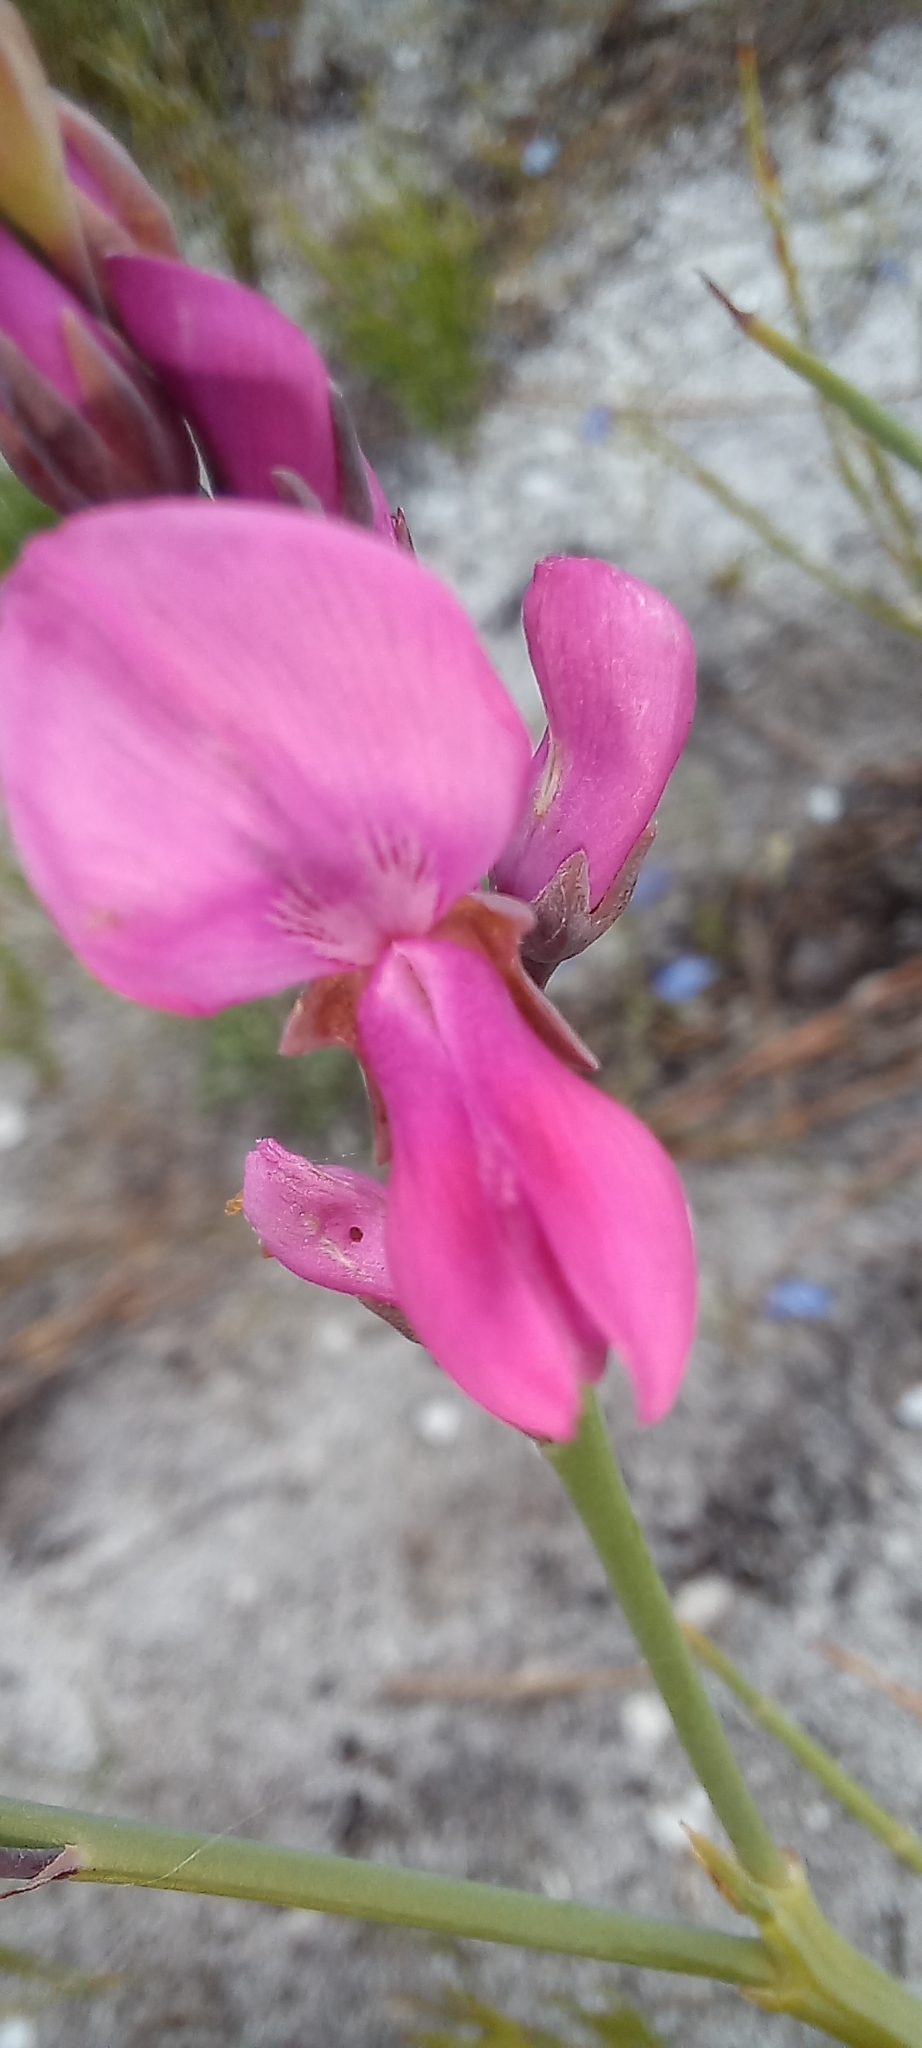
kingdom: Plantae
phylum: Tracheophyta
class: Magnoliopsida
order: Fabales
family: Fabaceae
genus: Indigofera
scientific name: Indigofera filifolia
